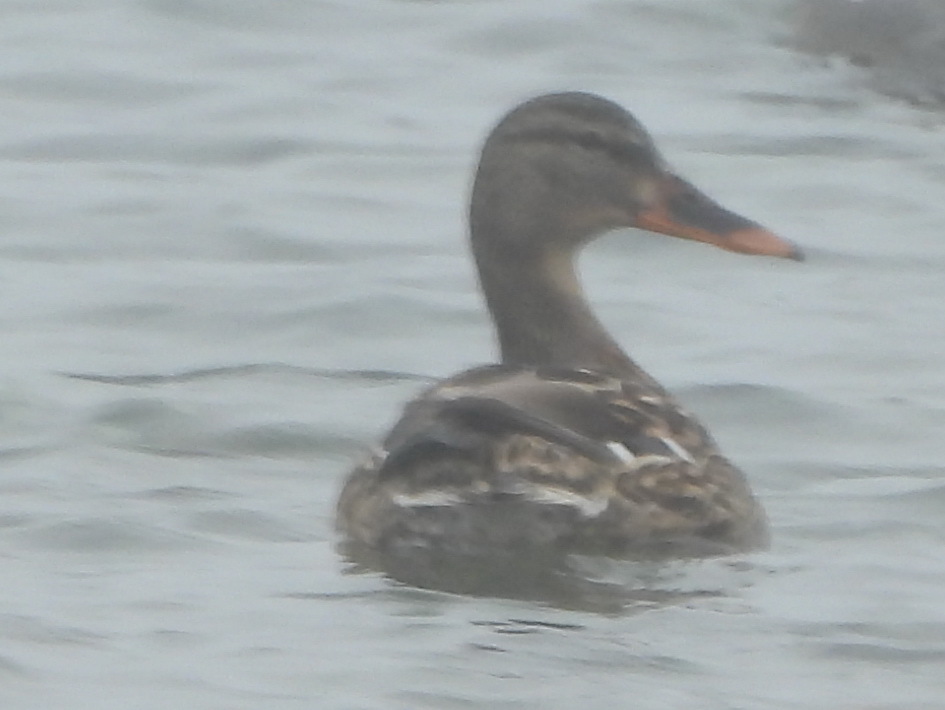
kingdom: Animalia
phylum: Chordata
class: Aves
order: Anseriformes
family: Anatidae
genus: Anas
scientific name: Anas platyrhynchos
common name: Mallard
